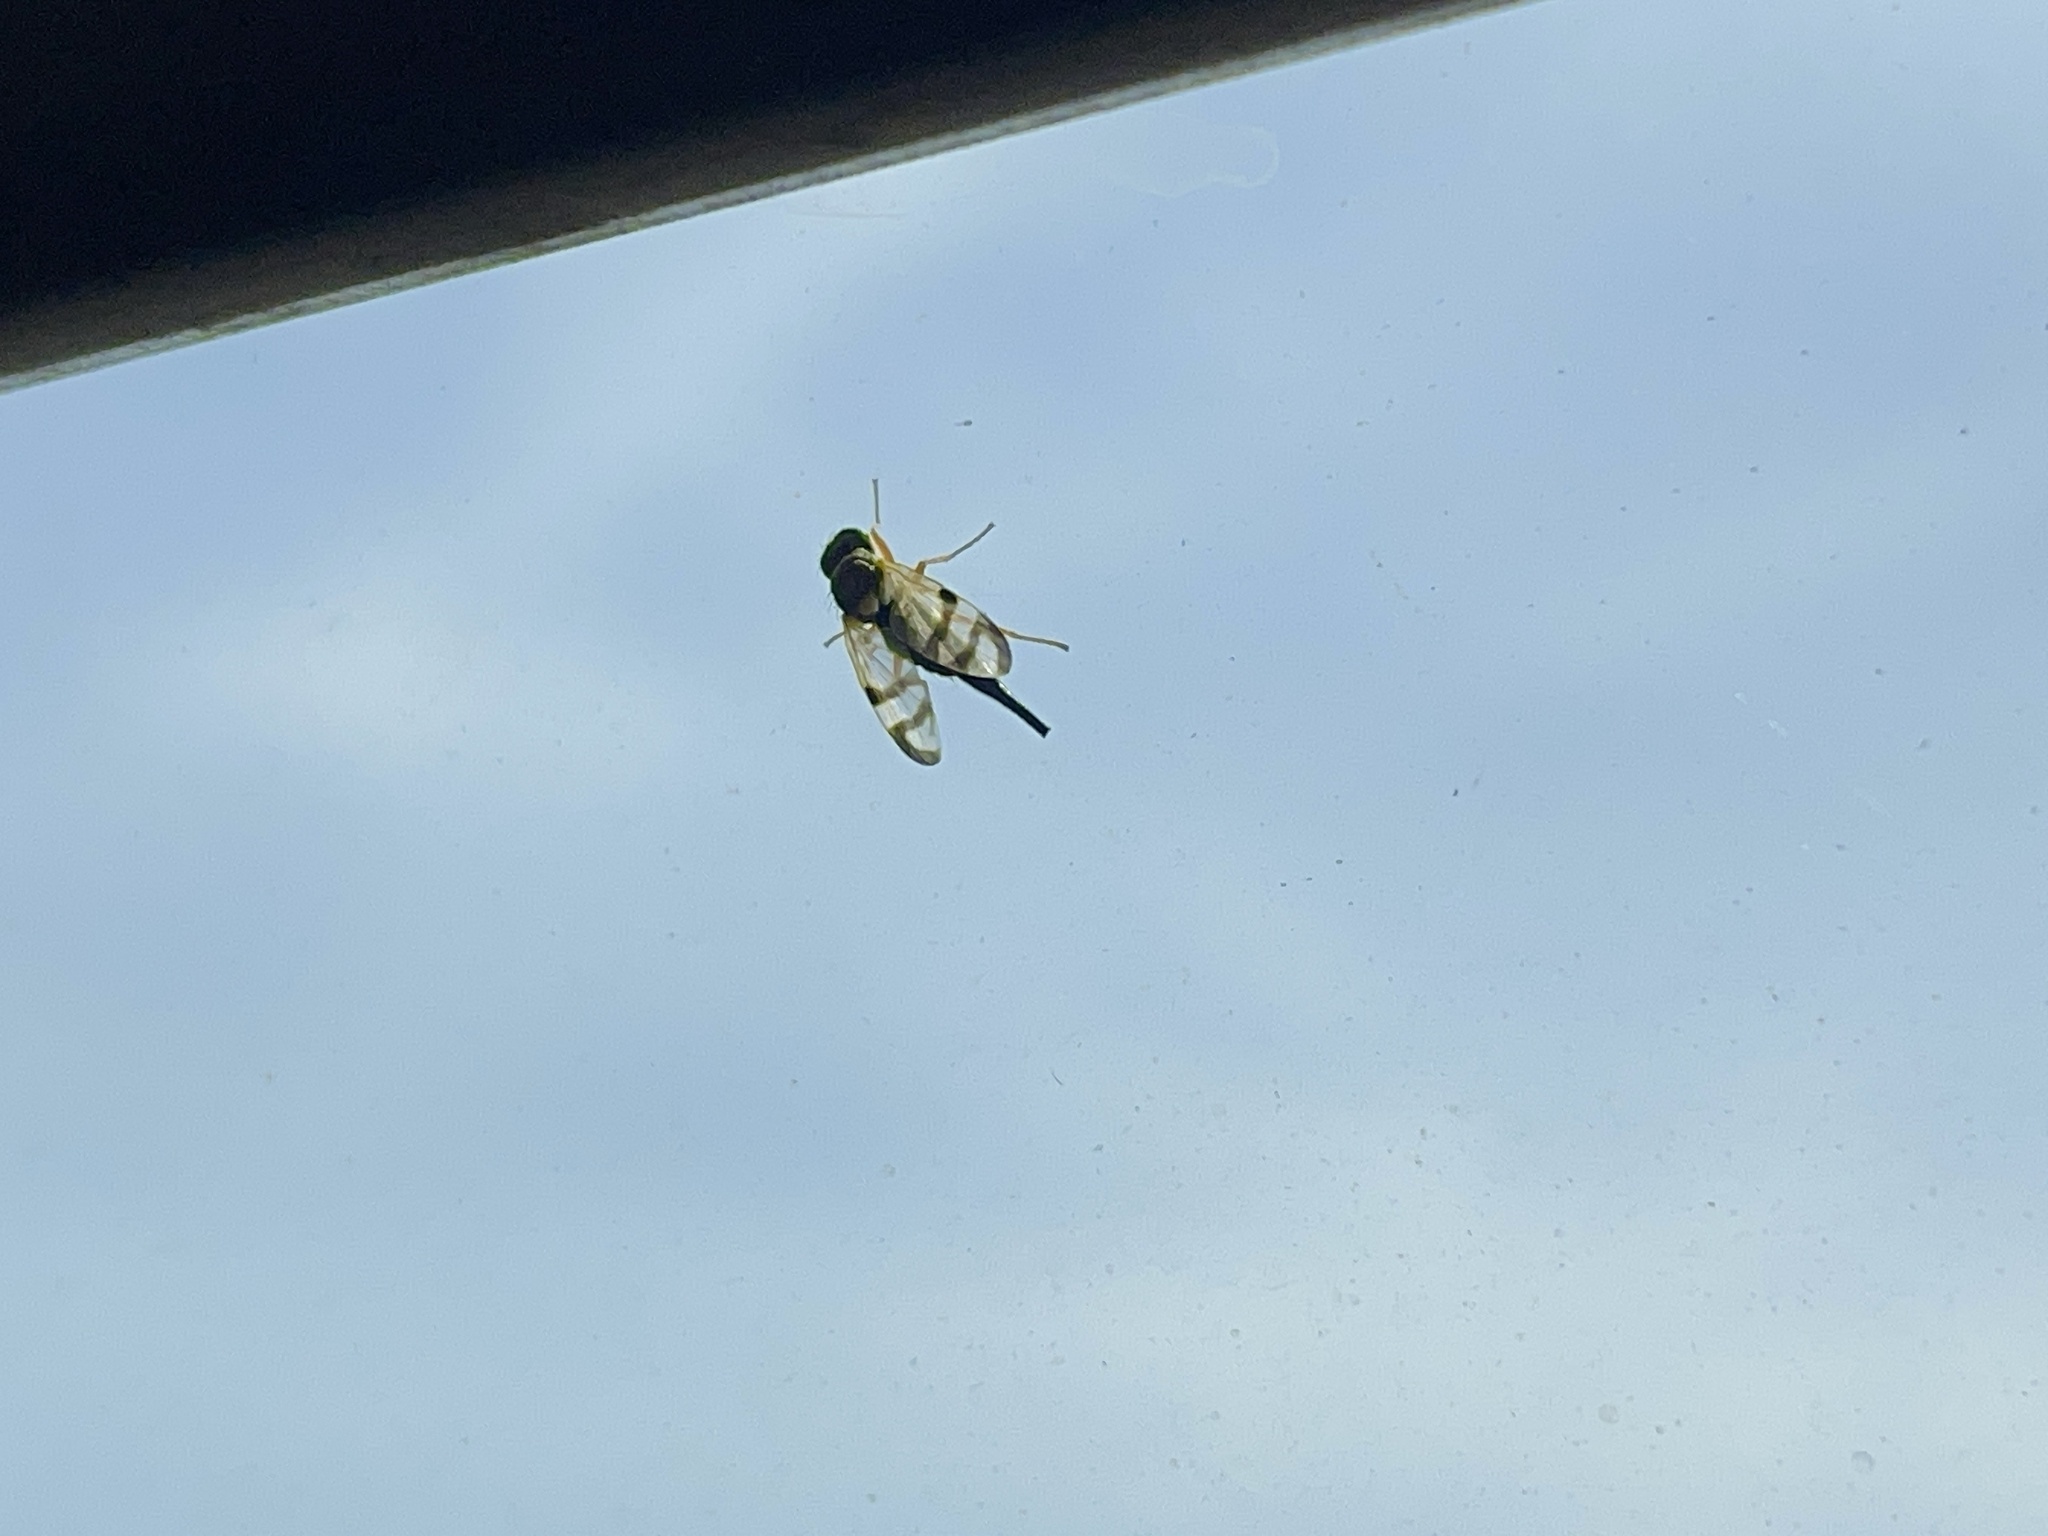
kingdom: Animalia
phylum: Arthropoda
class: Insecta
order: Diptera
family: Tephritidae
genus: Urophora
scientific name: Urophora stylata
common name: Fruit fly
